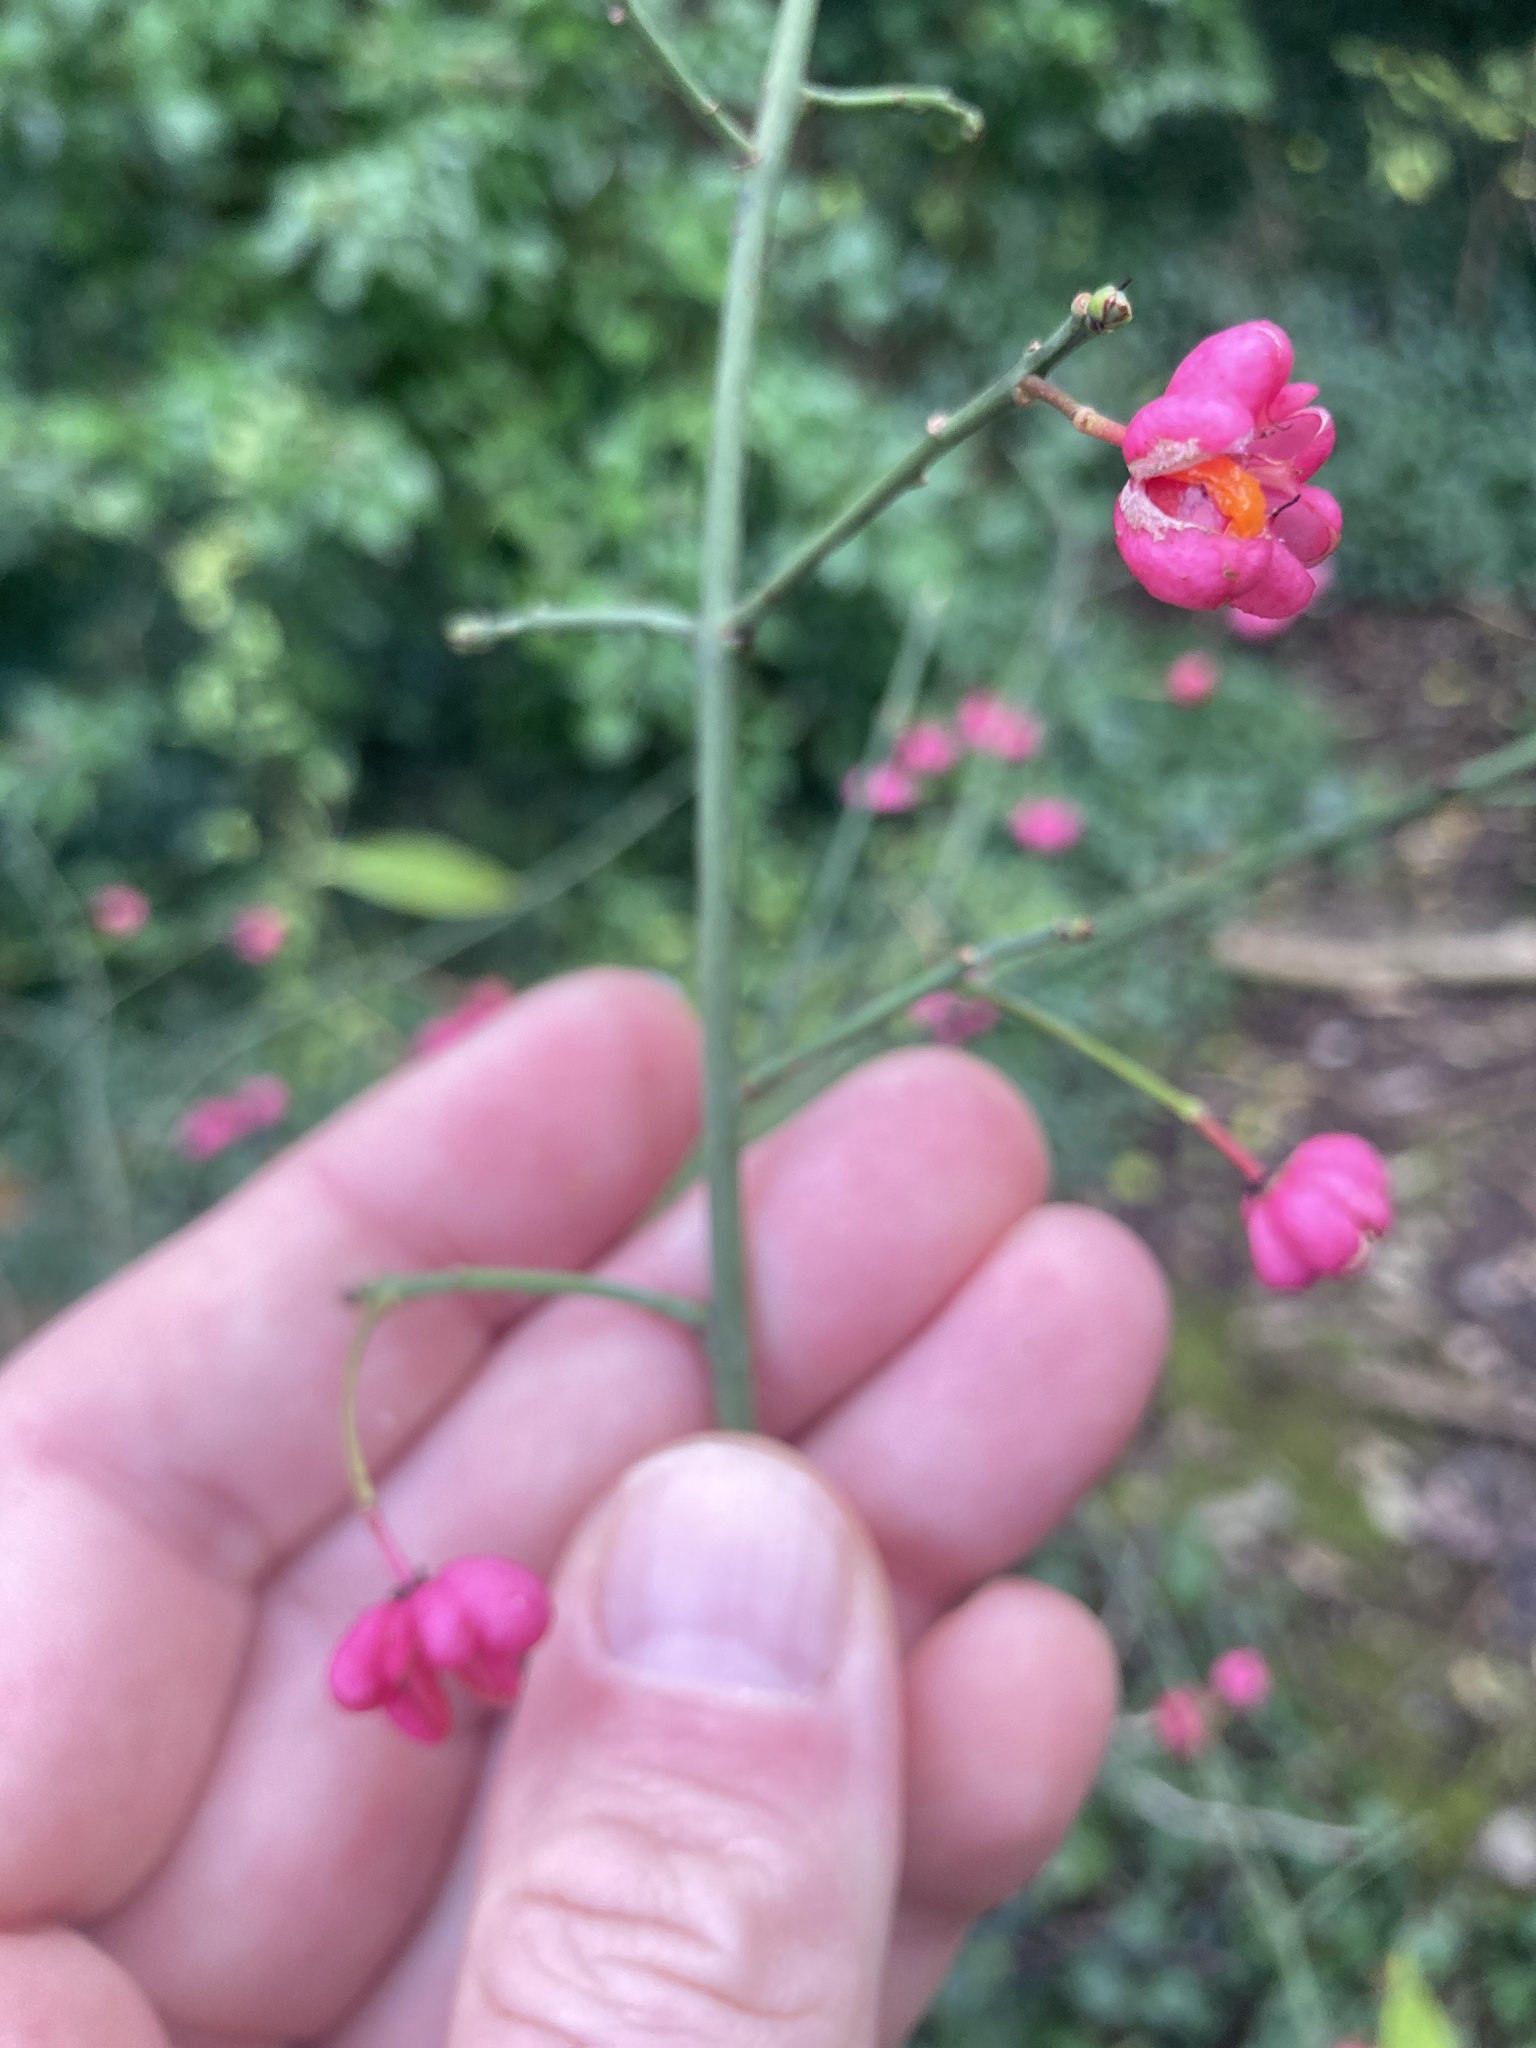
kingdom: Plantae
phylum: Tracheophyta
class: Magnoliopsida
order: Celastrales
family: Celastraceae
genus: Euonymus
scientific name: Euonymus europaeus
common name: Spindle
